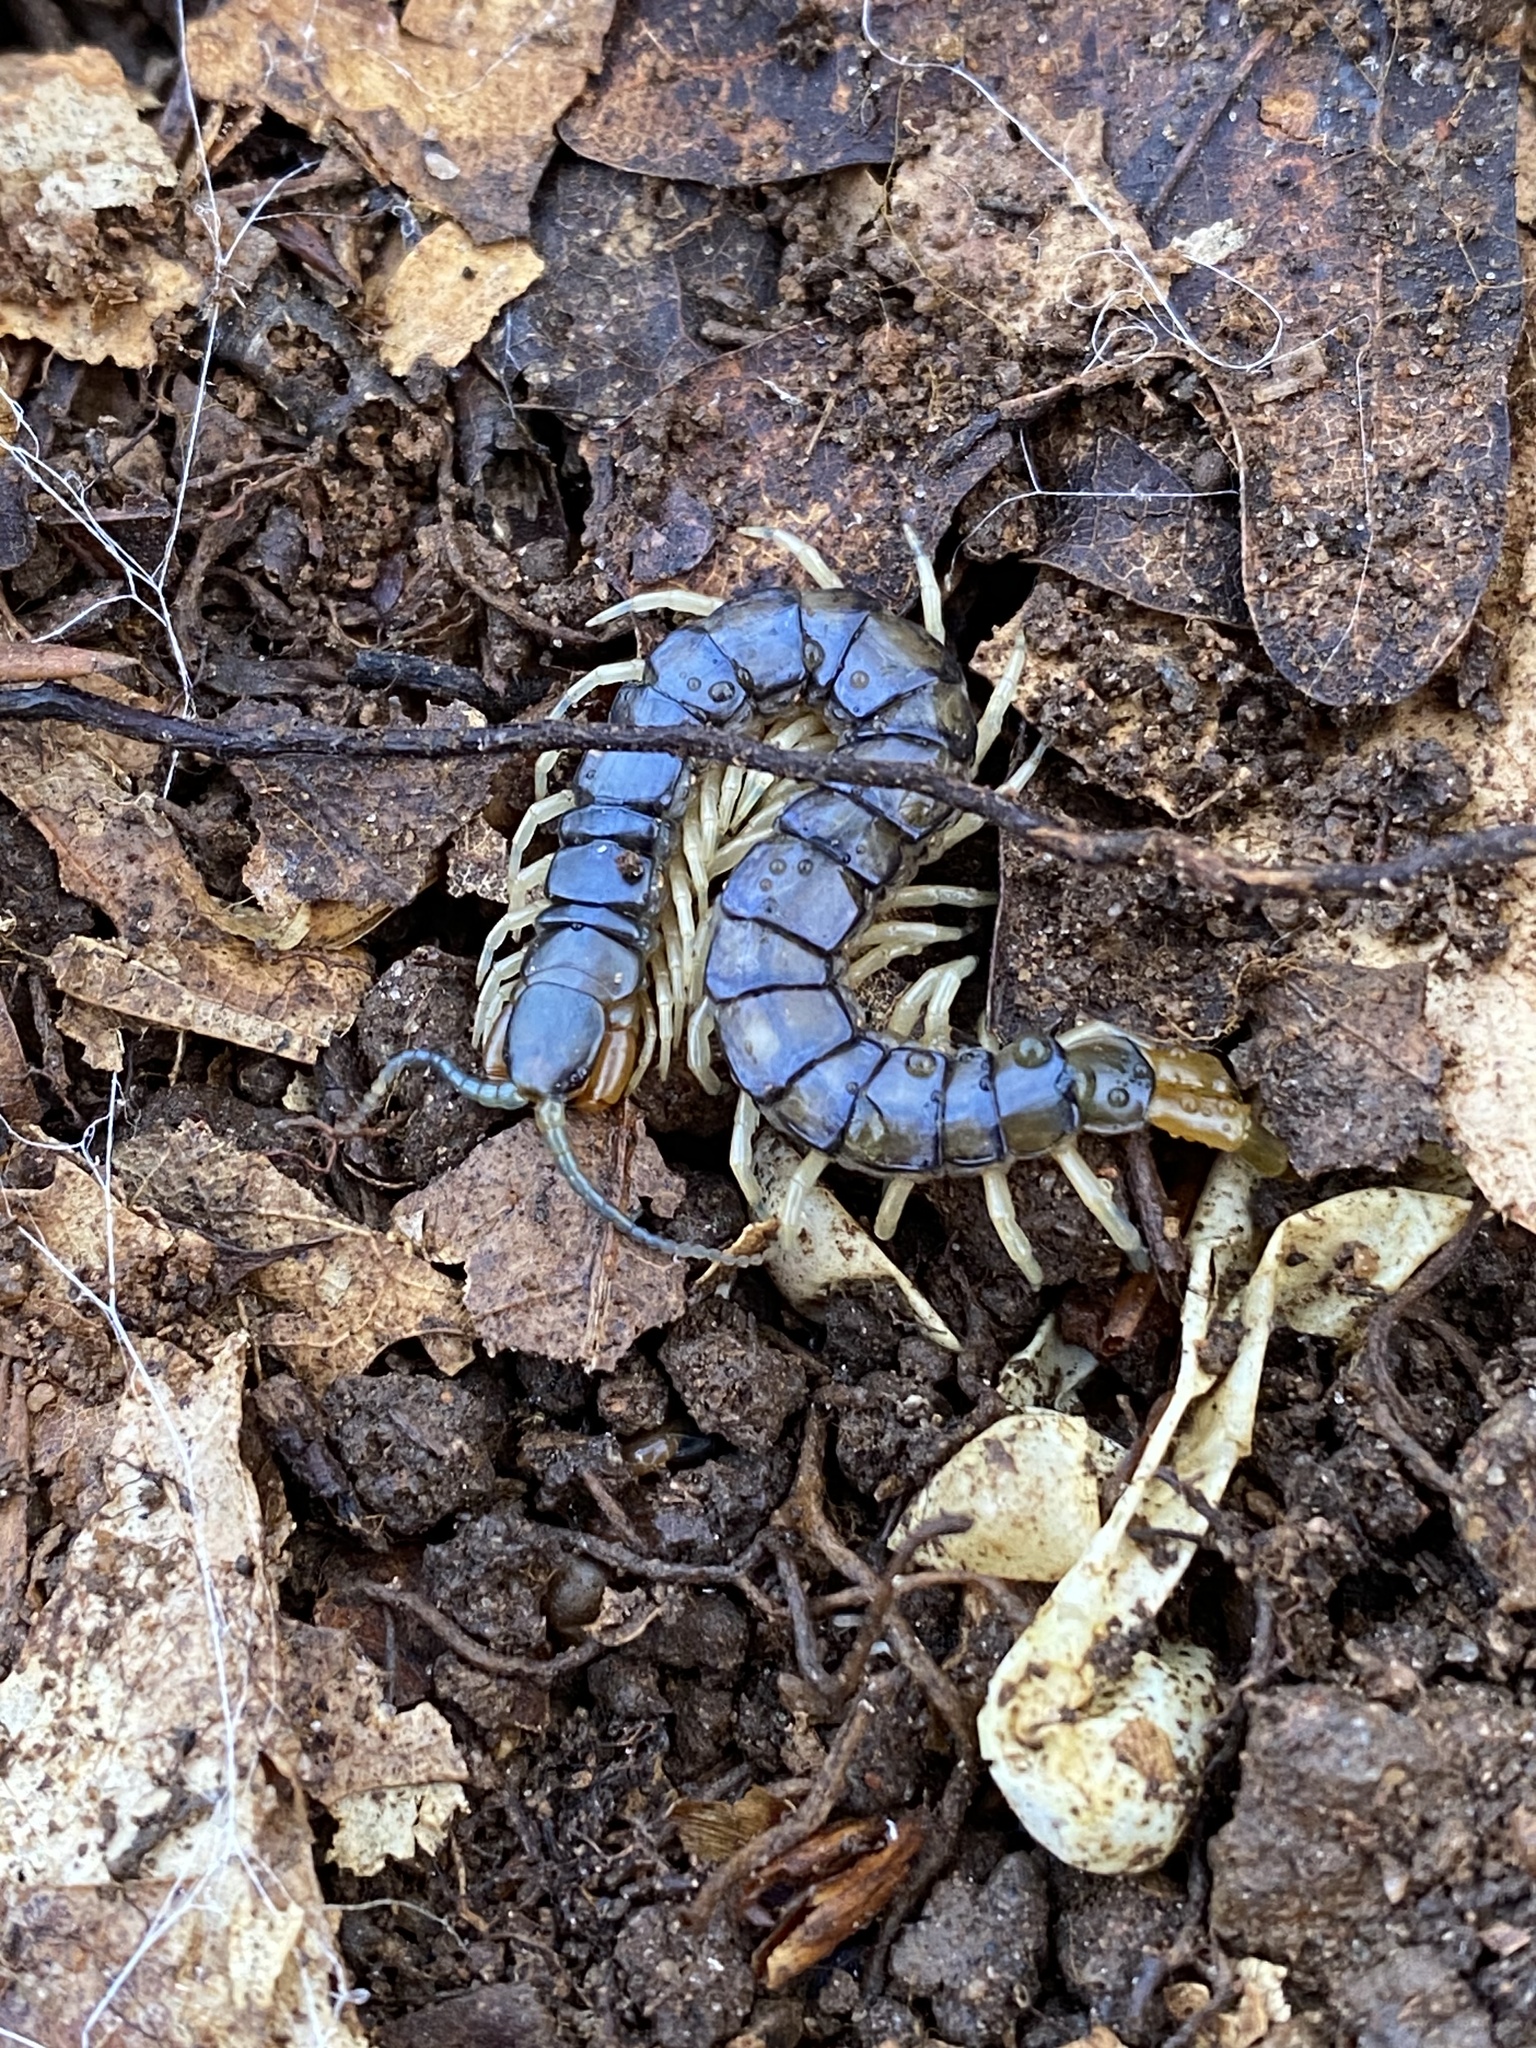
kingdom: Animalia
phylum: Arthropoda
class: Chilopoda
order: Scolopendromorpha
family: Scolopendridae
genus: Hemiscolopendra
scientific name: Hemiscolopendra marginata
